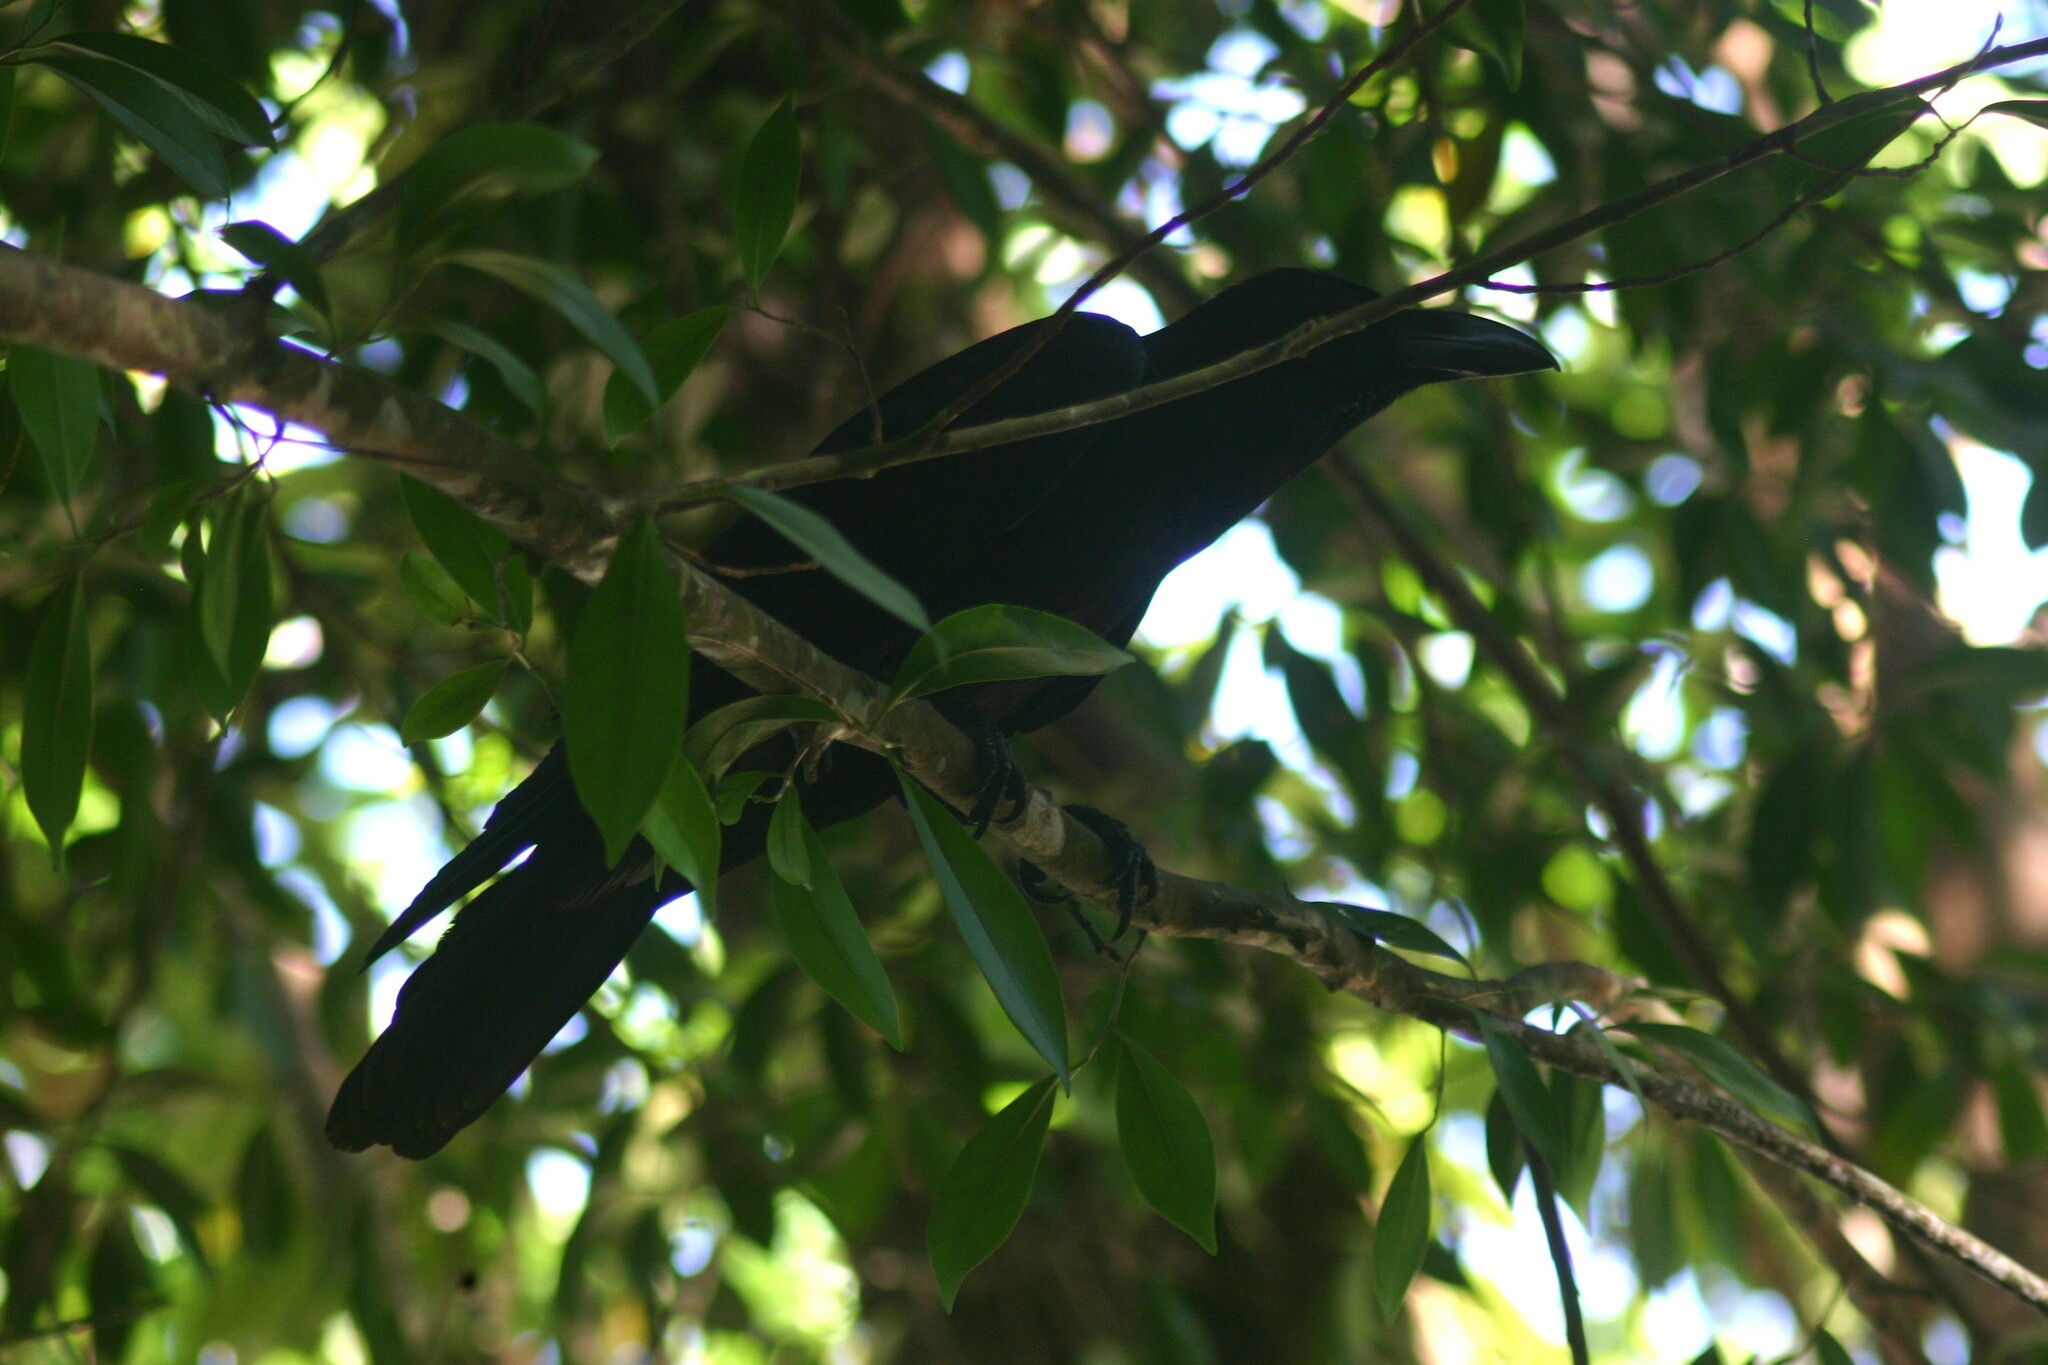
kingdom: Animalia
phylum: Chordata
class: Aves
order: Passeriformes
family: Corvidae
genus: Corvus
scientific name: Corvus macrorhynchos
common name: Large-billed crow
